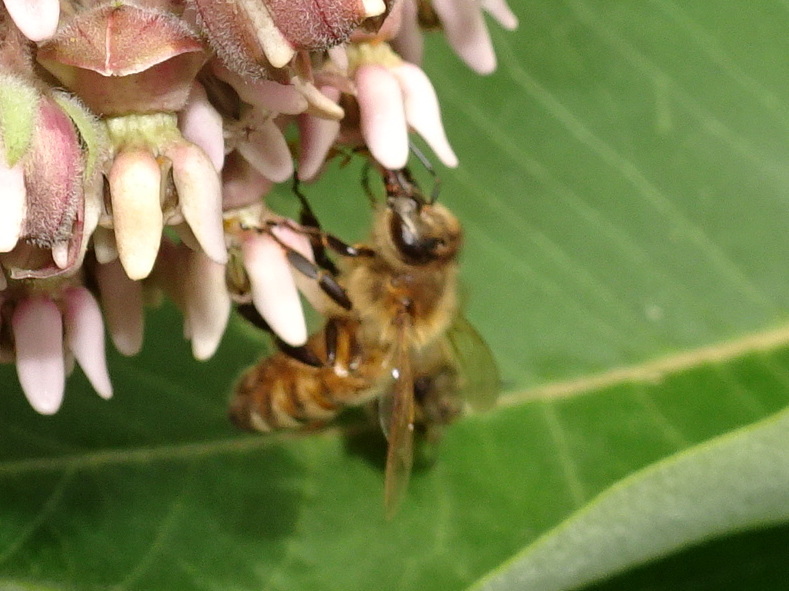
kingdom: Animalia
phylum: Arthropoda
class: Insecta
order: Hymenoptera
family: Apidae
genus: Apis
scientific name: Apis mellifera
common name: Honey bee
